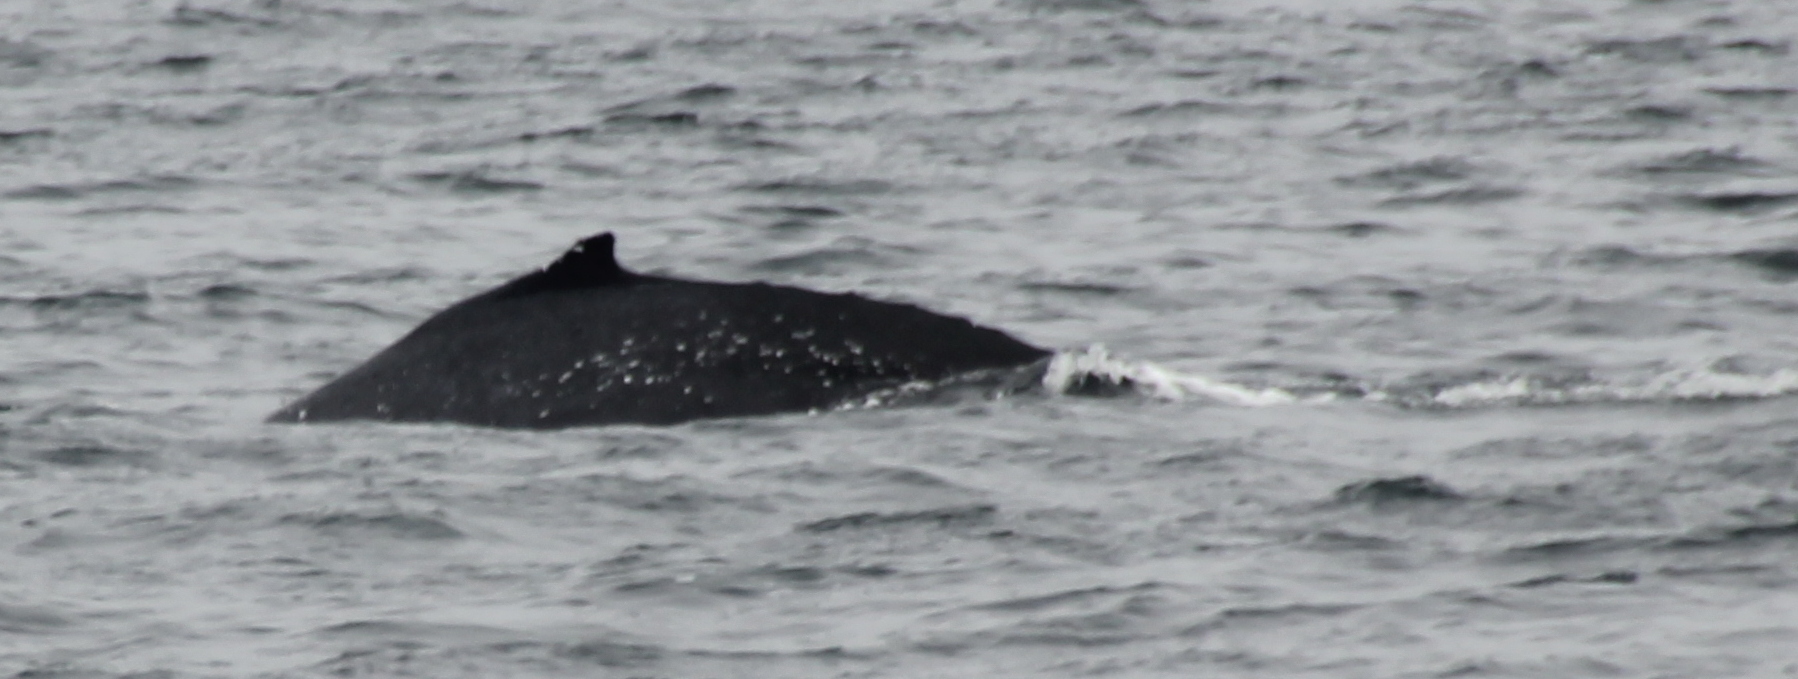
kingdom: Animalia
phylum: Chordata
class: Mammalia
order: Cetacea
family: Balaenopteridae
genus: Megaptera
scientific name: Megaptera novaeangliae
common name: Humpback whale
